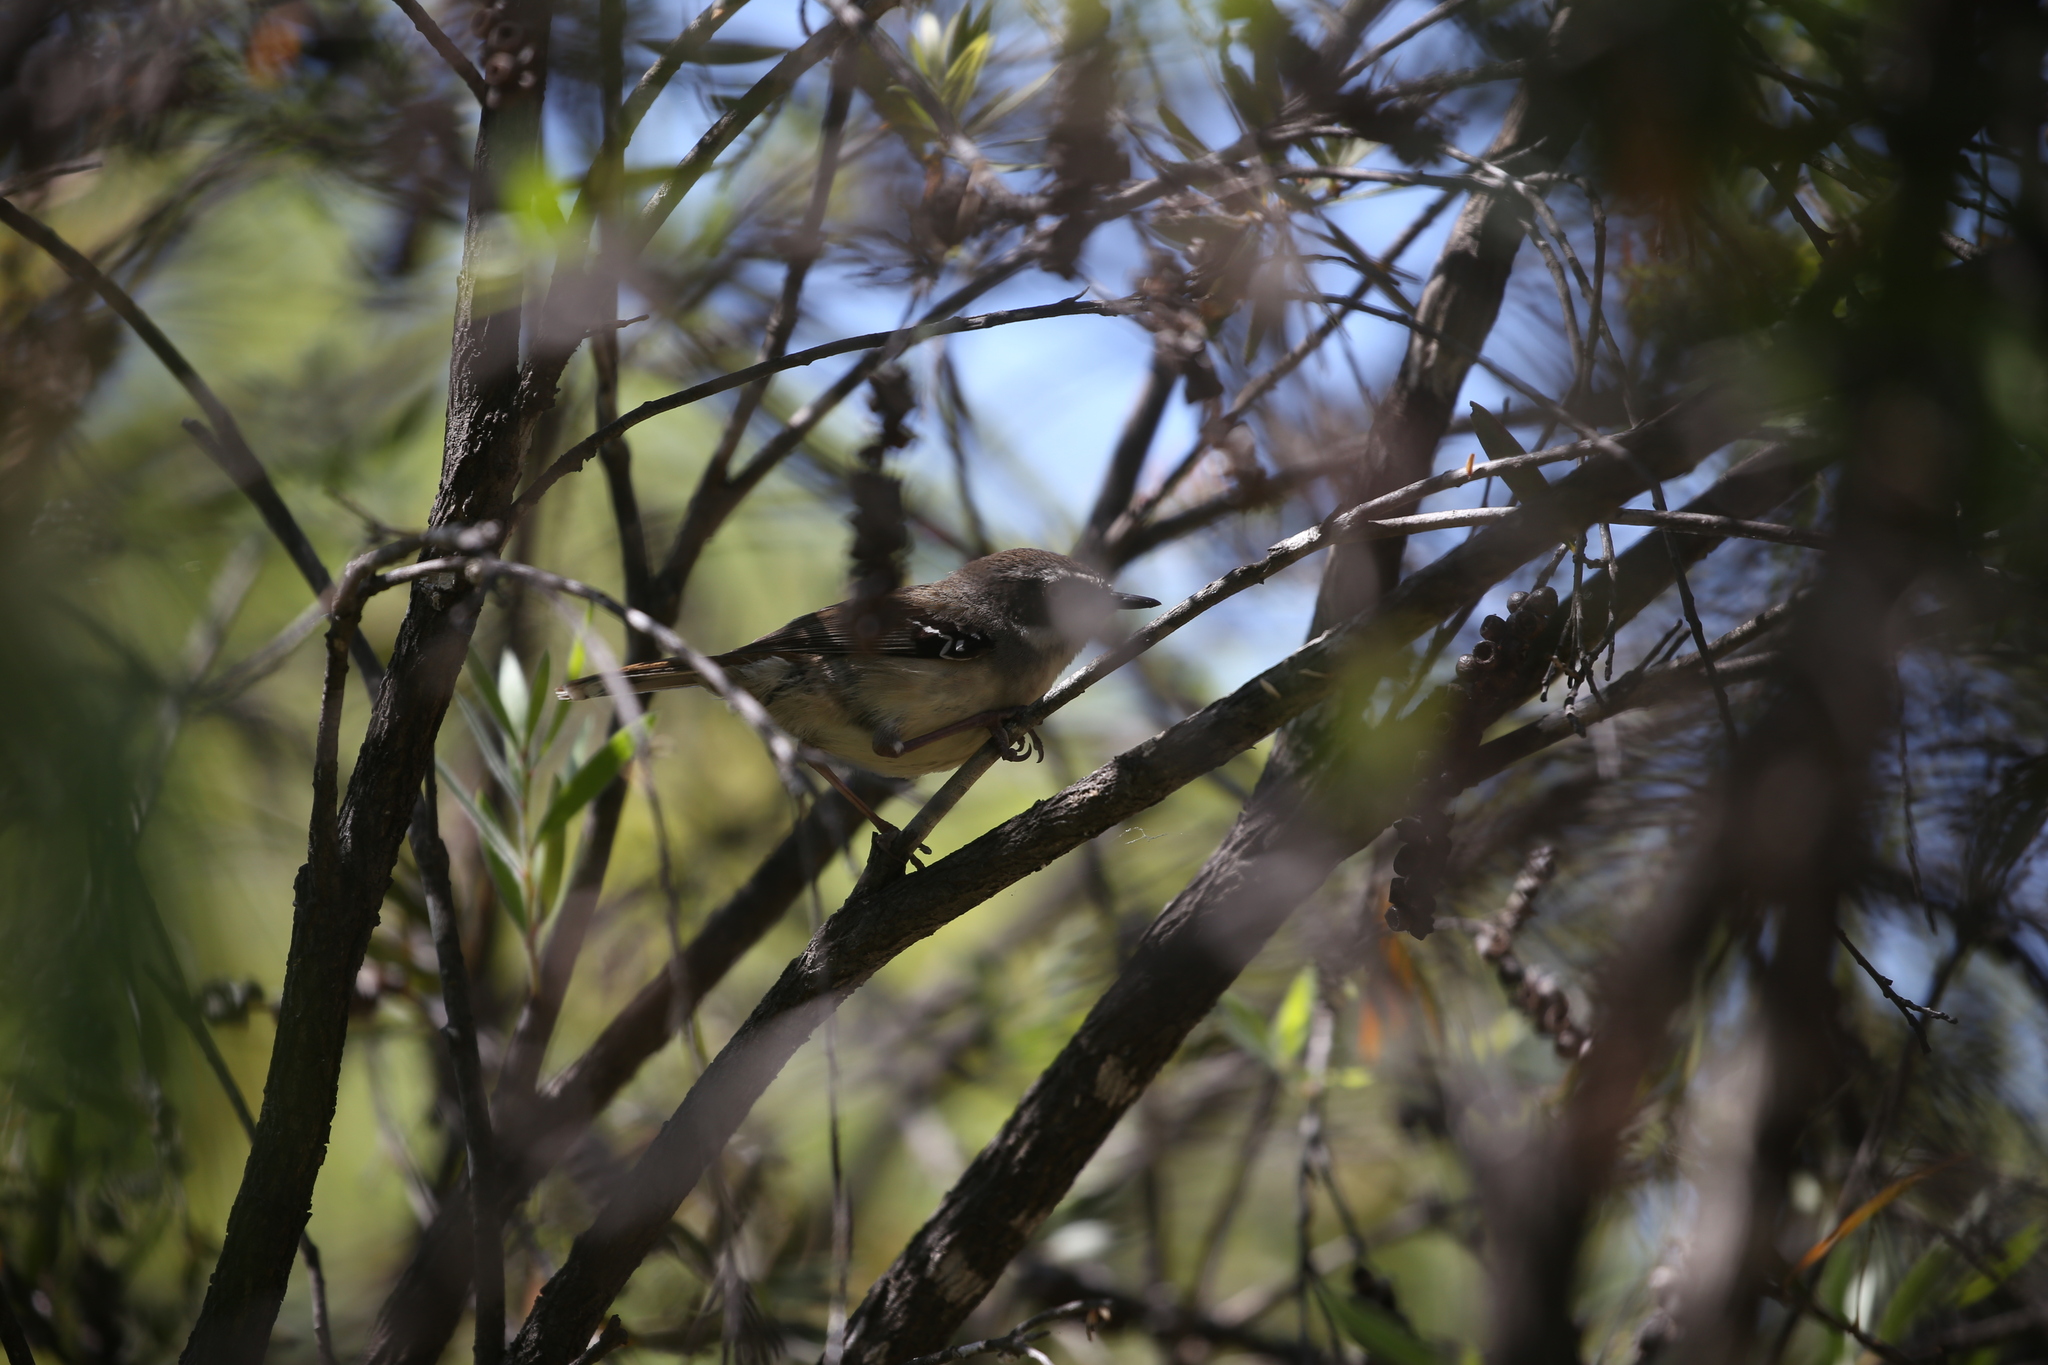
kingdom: Animalia
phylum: Chordata
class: Aves
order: Passeriformes
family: Acanthizidae
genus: Sericornis
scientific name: Sericornis frontalis
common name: White-browed scrubwren
